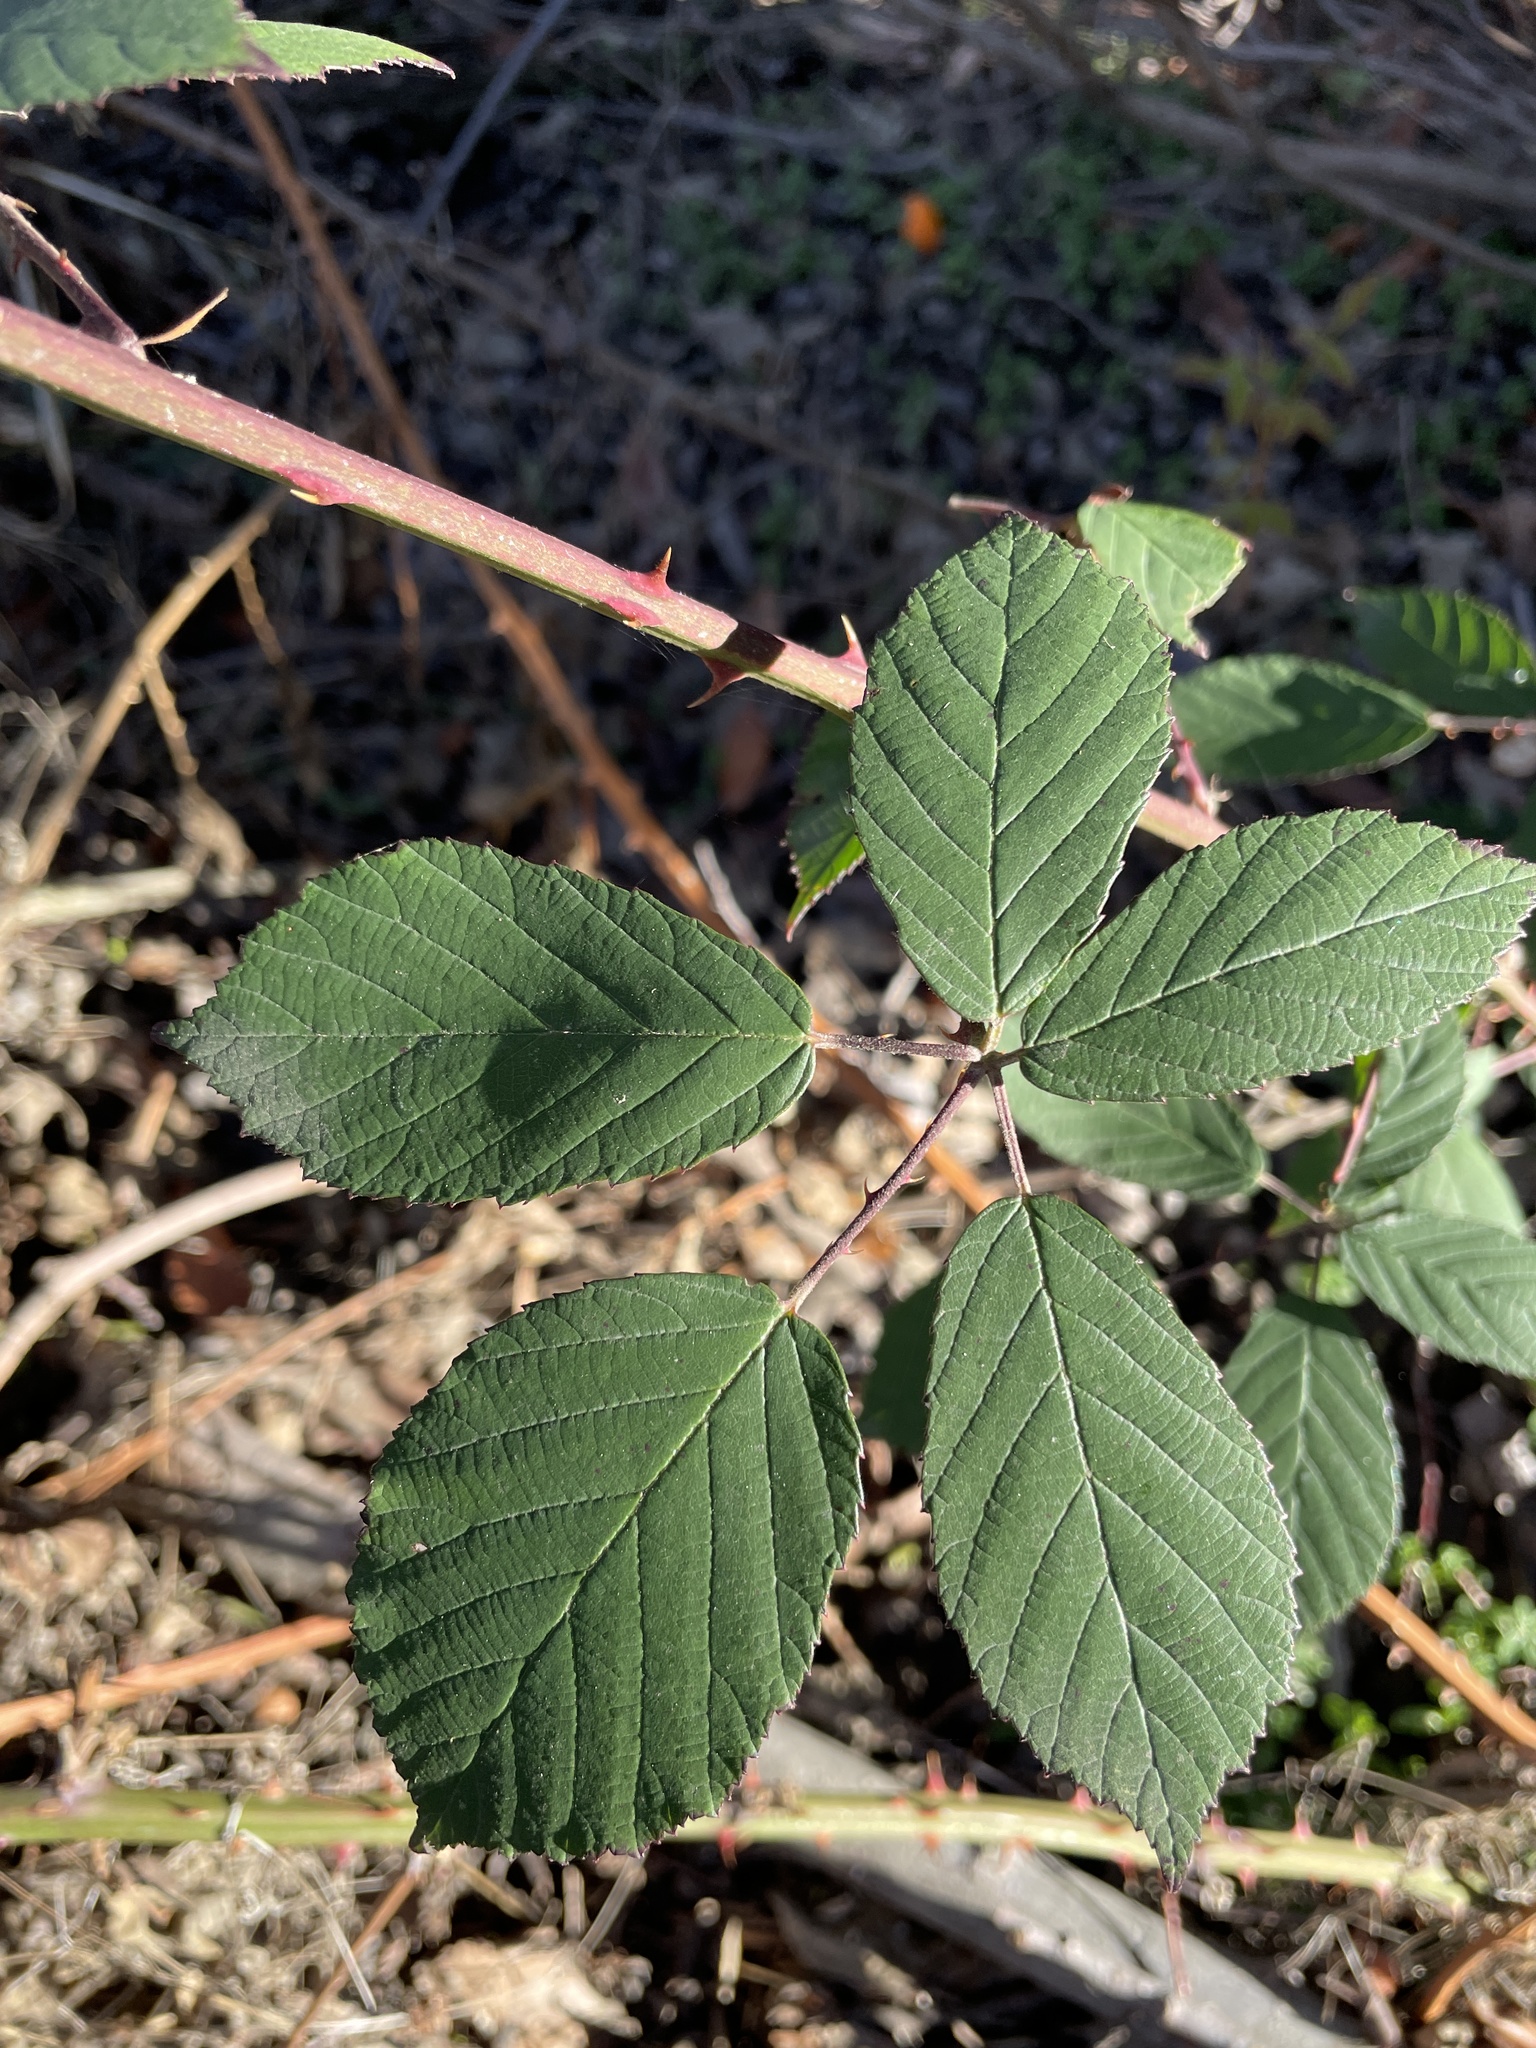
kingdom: Plantae
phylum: Tracheophyta
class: Magnoliopsida
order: Rosales
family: Rosaceae
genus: Rubus
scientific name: Rubus armeniacus
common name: Himalayan blackberry
